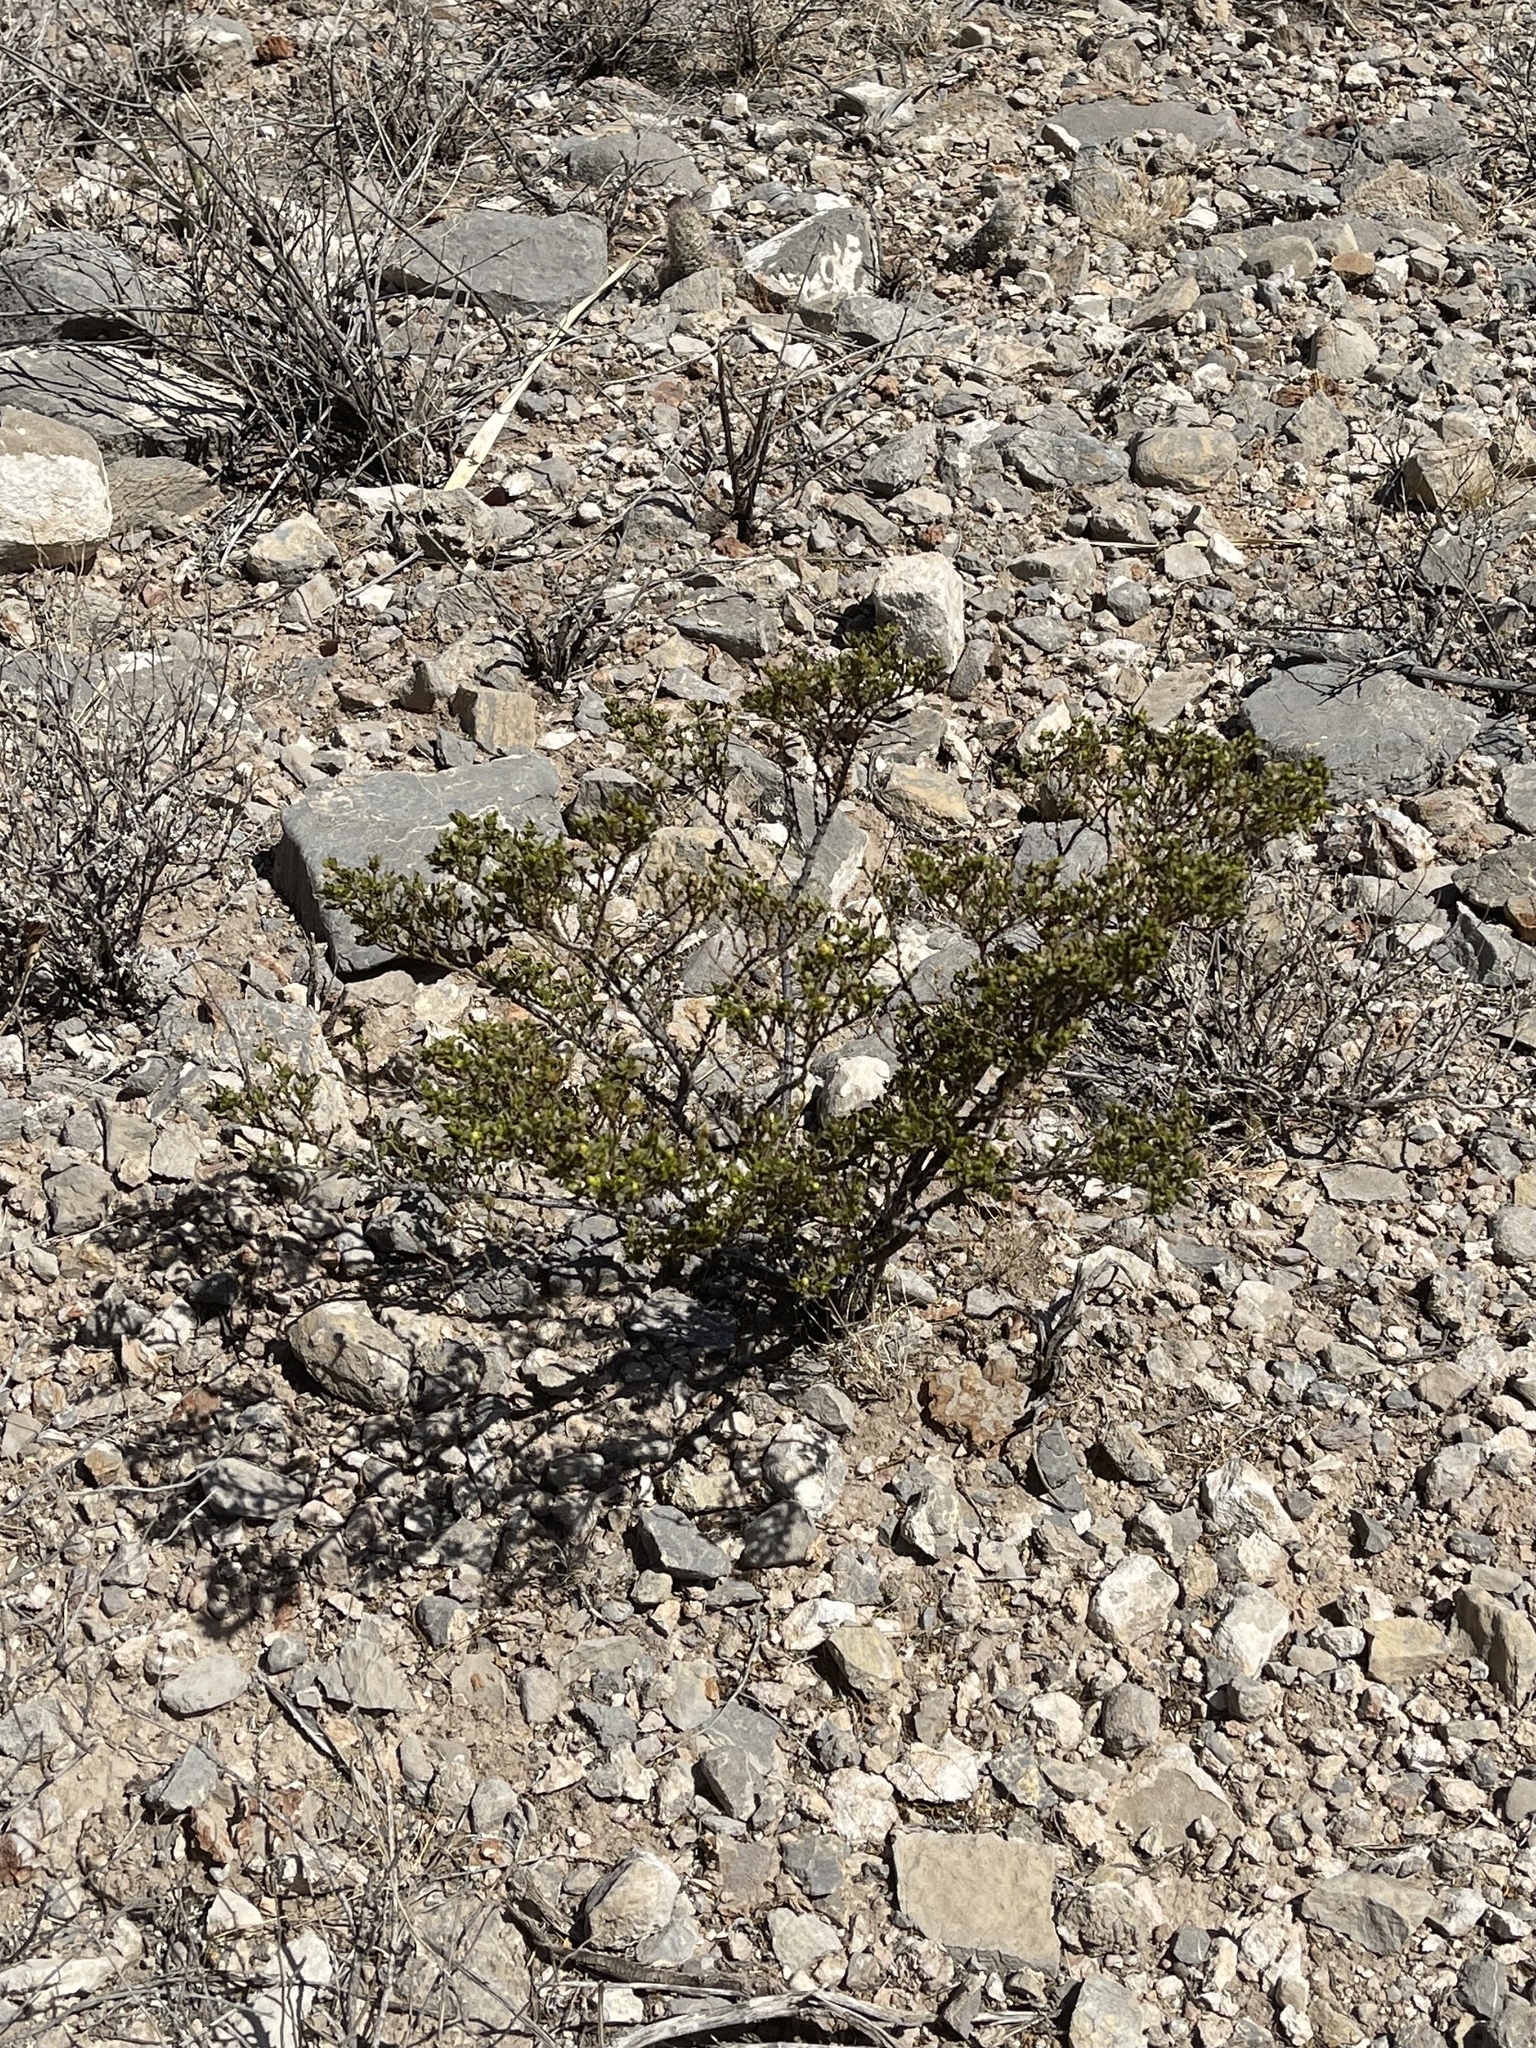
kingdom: Plantae
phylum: Tracheophyta
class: Magnoliopsida
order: Zygophyllales
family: Zygophyllaceae
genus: Larrea
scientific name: Larrea tridentata
